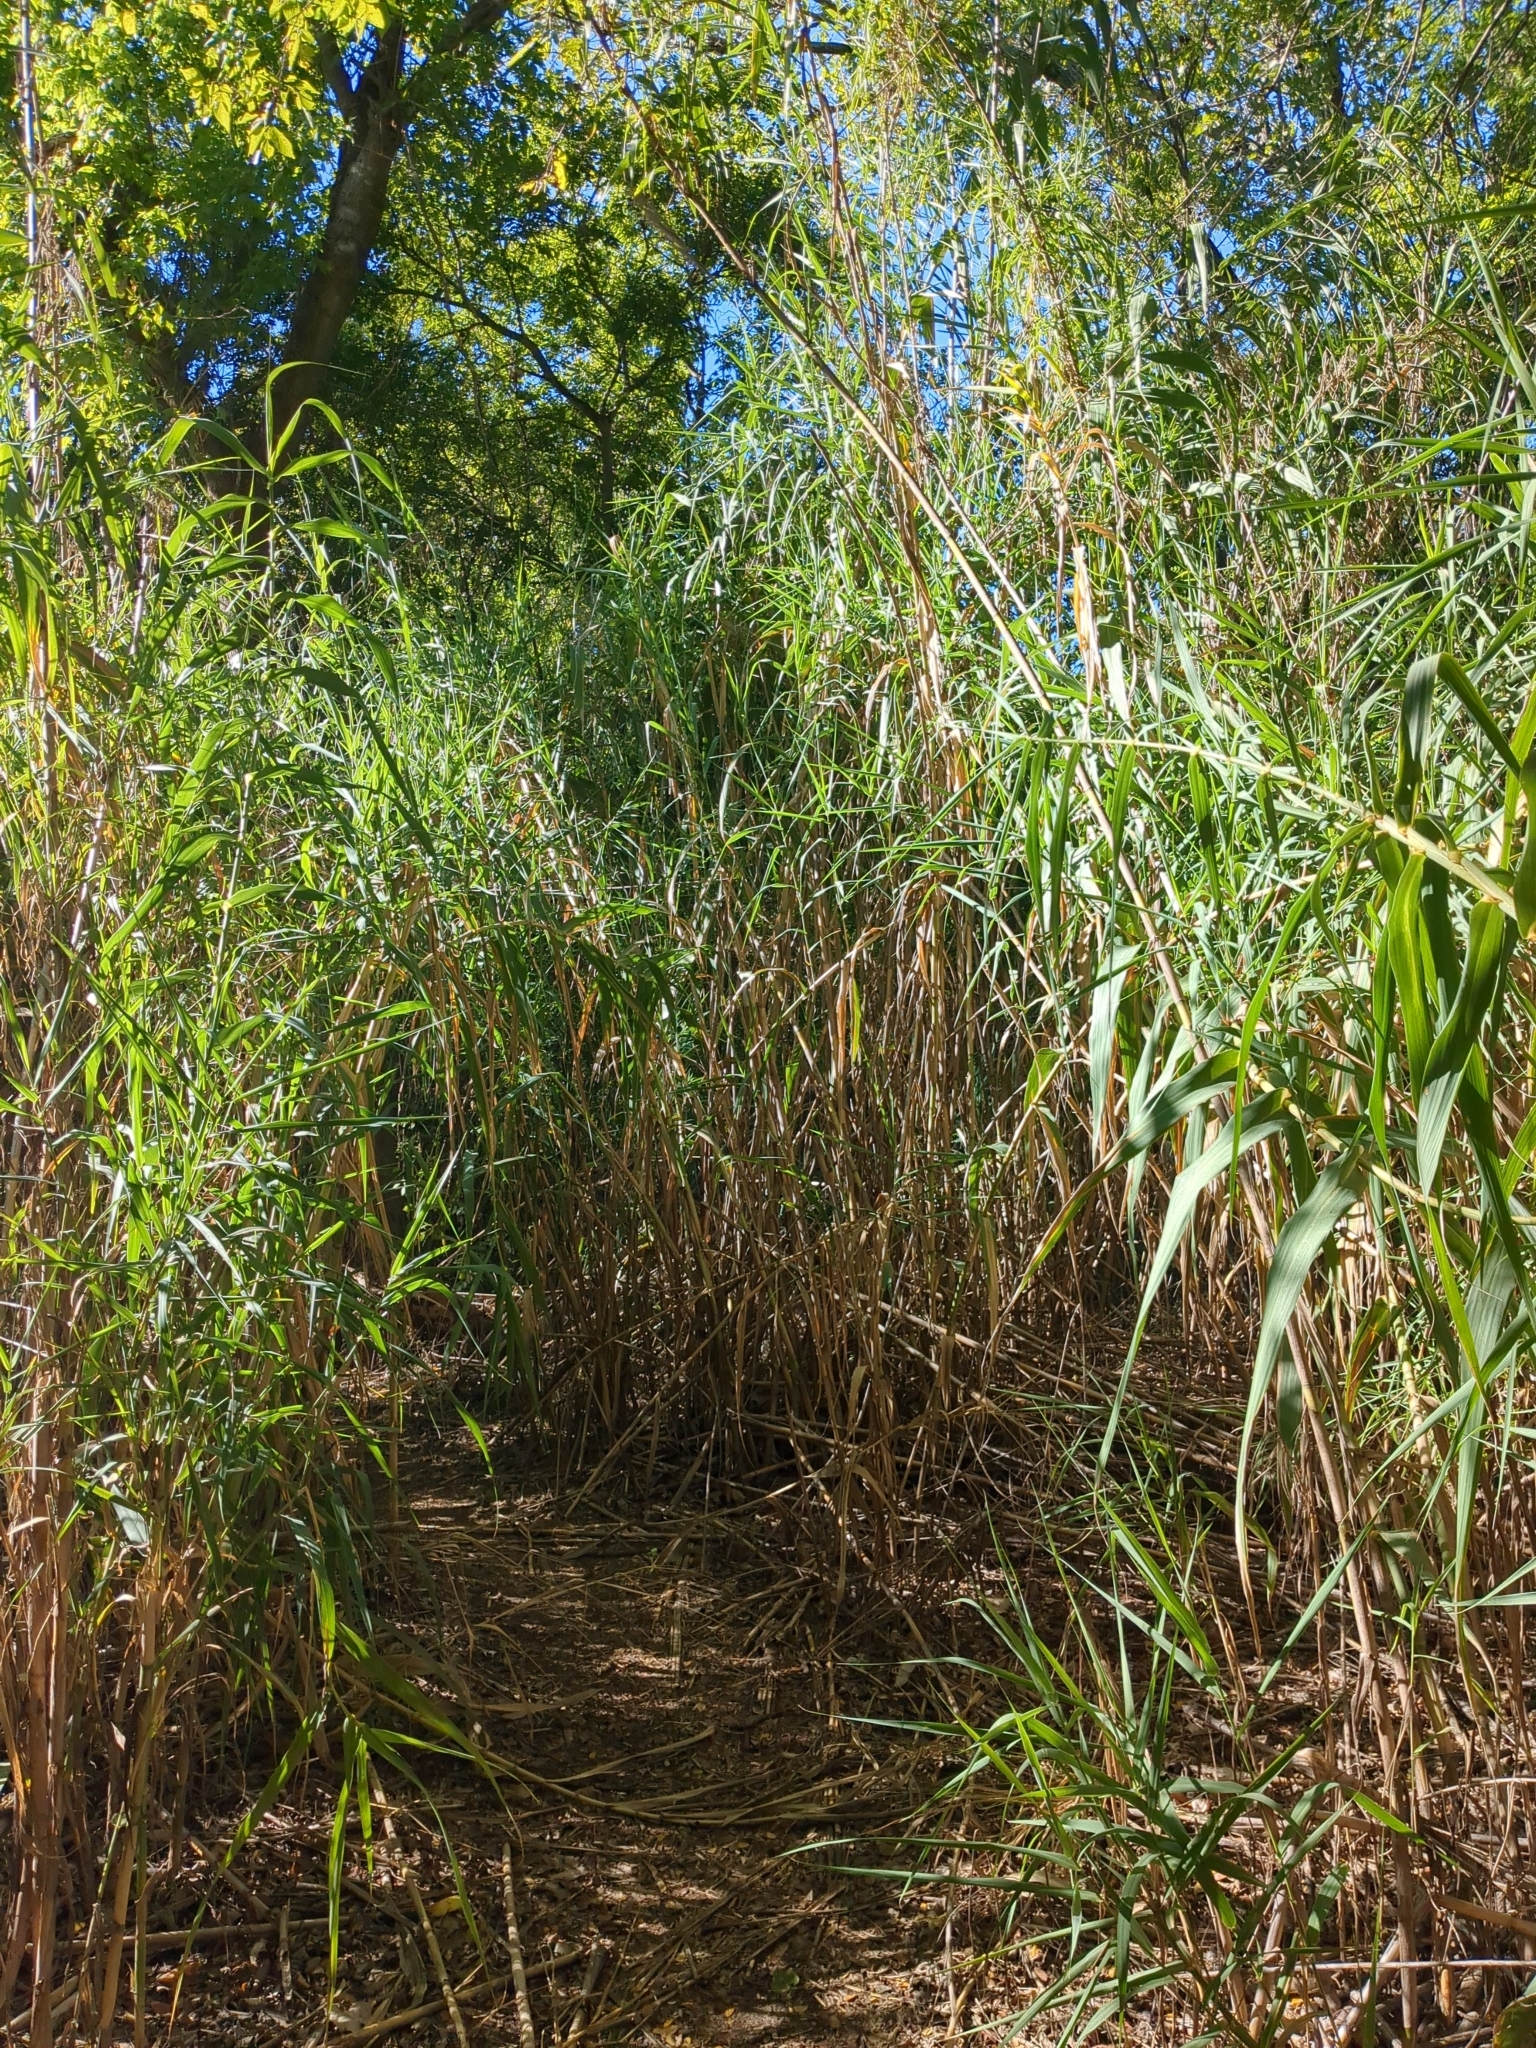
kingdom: Plantae
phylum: Tracheophyta
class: Liliopsida
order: Poales
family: Poaceae
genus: Arundo
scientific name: Arundo donax
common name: Giant reed
